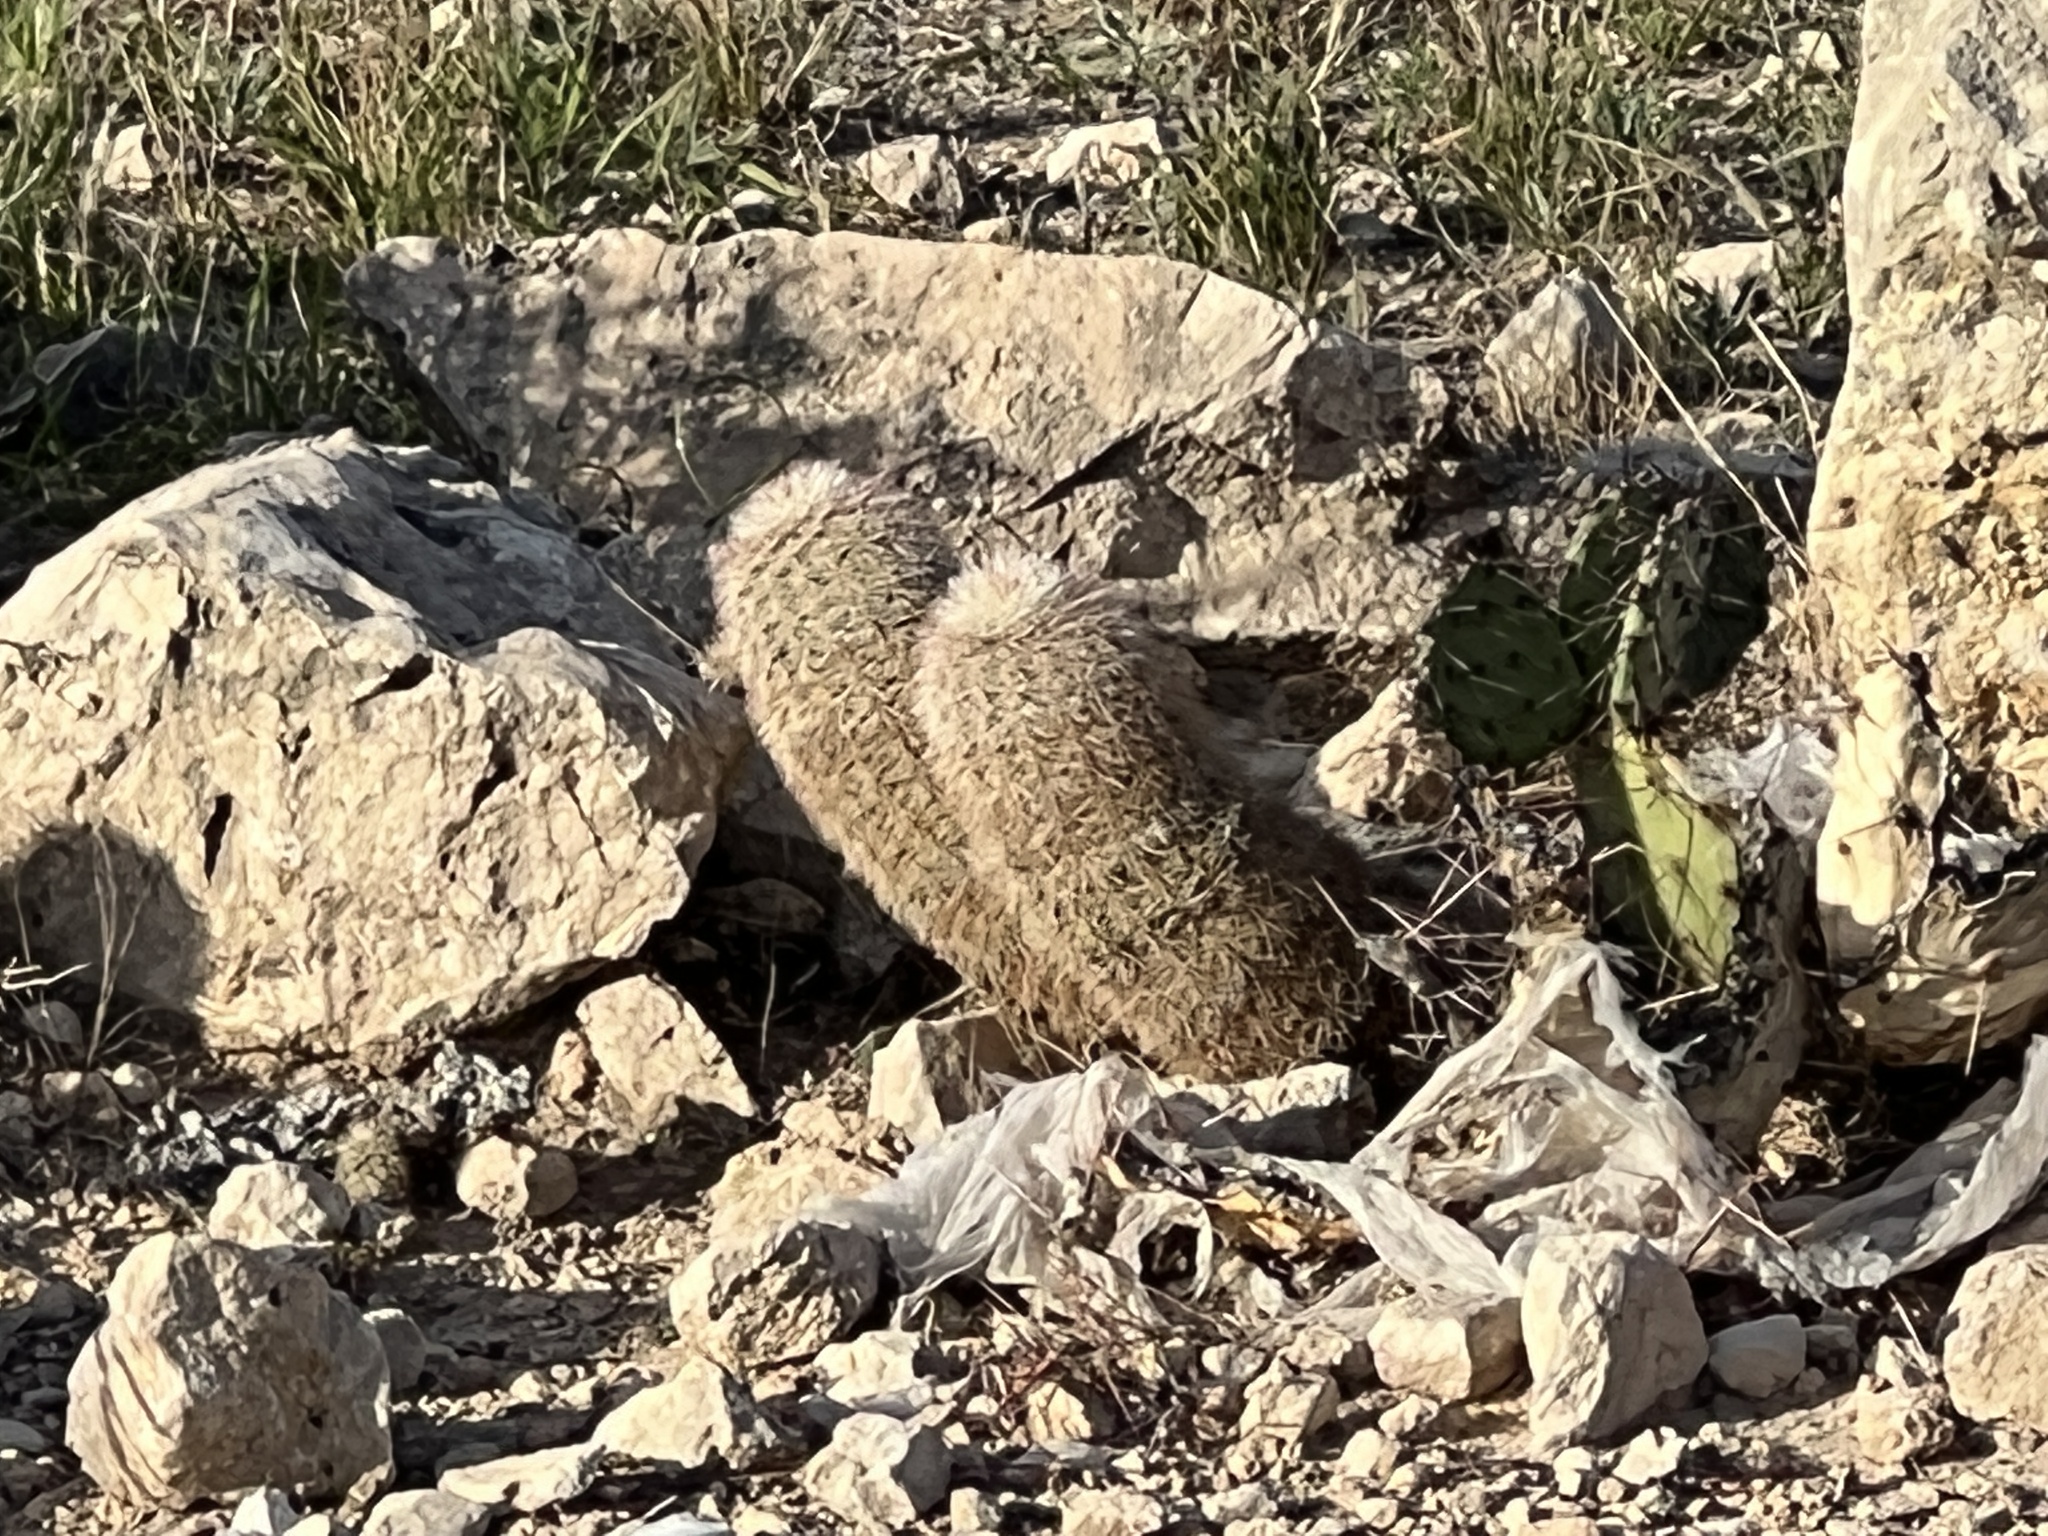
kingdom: Plantae
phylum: Tracheophyta
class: Magnoliopsida
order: Caryophyllales
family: Cactaceae
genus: Echinocereus
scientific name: Echinocereus dasyacanthus
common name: Spiny hedgehog cactus
